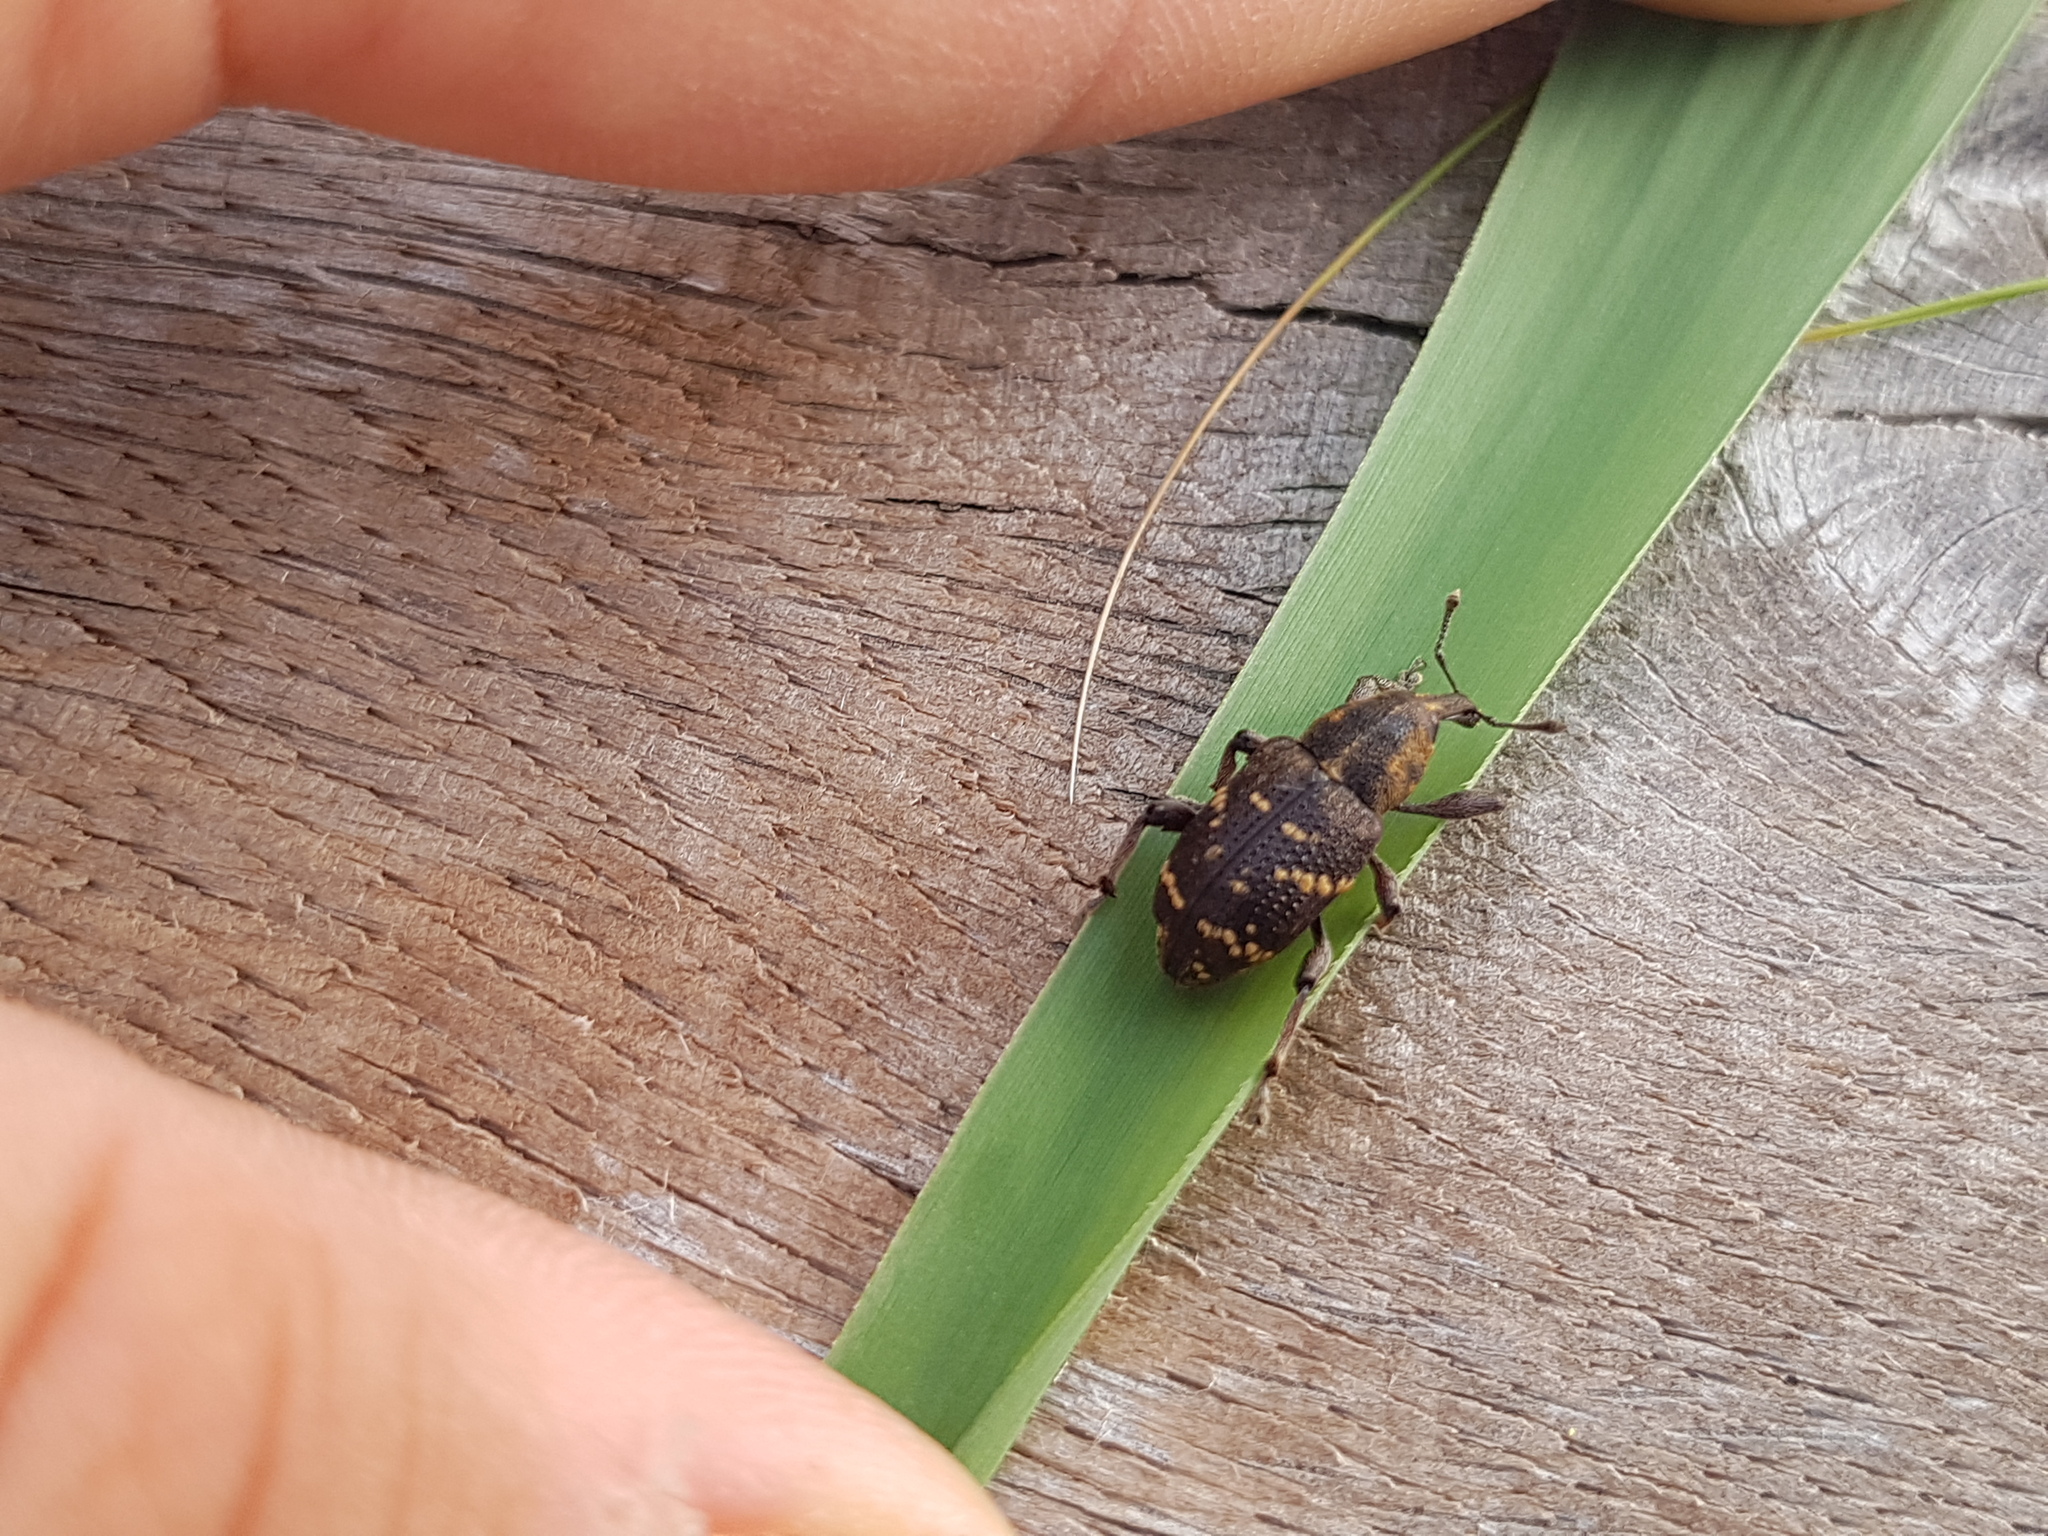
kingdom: Animalia
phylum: Arthropoda
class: Insecta
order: Coleoptera
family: Curculionidae
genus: Hylobius
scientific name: Hylobius abietis
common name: Large pine weevil
